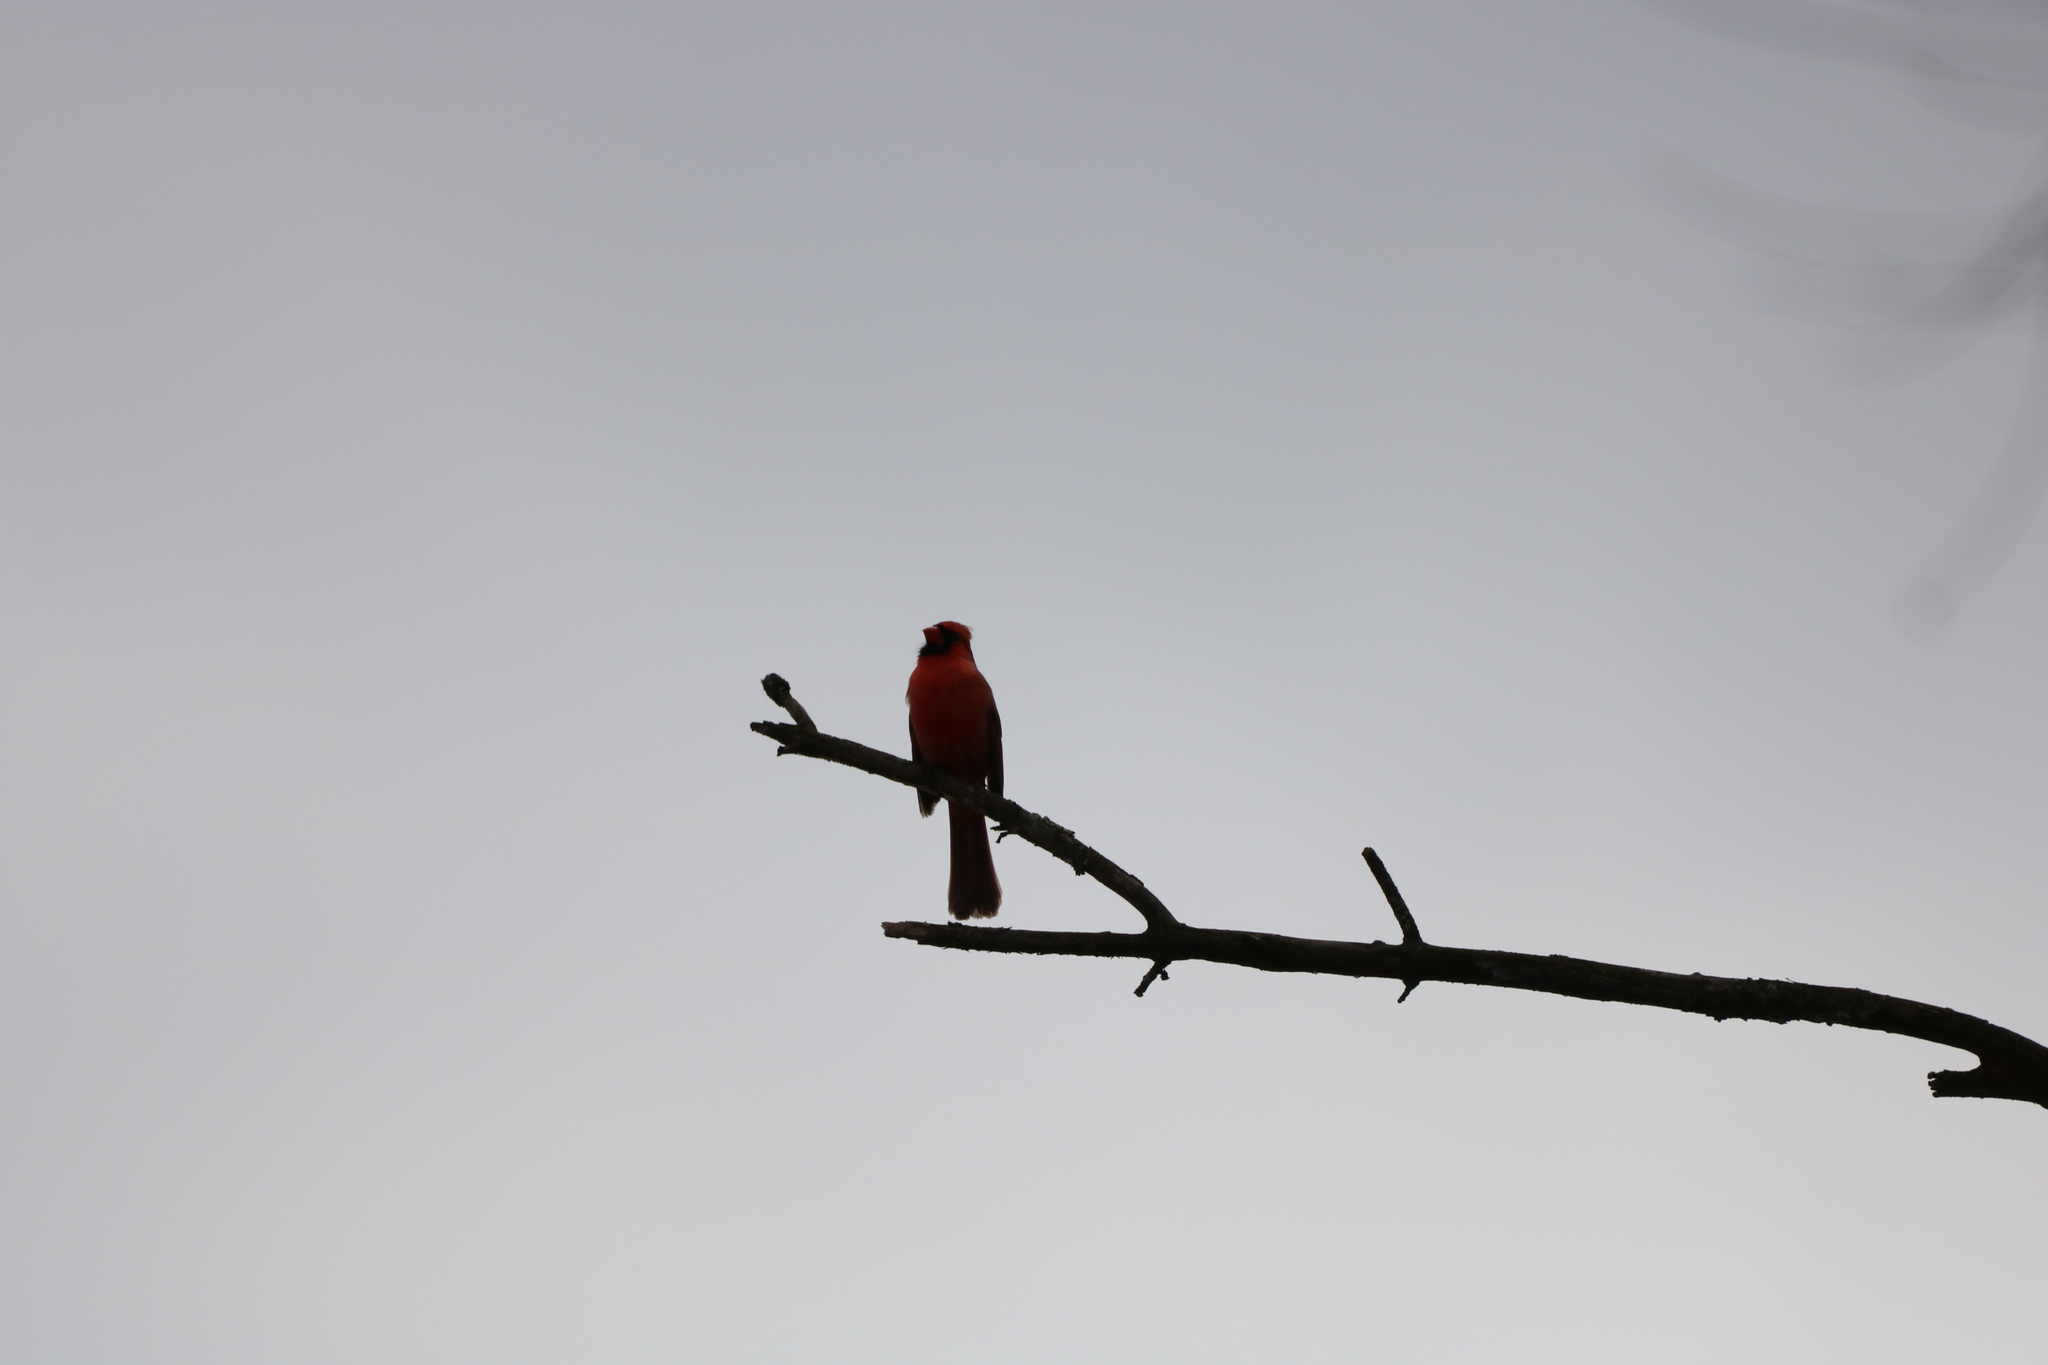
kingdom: Animalia
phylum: Chordata
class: Aves
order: Passeriformes
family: Cardinalidae
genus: Cardinalis
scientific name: Cardinalis cardinalis
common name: Northern cardinal
